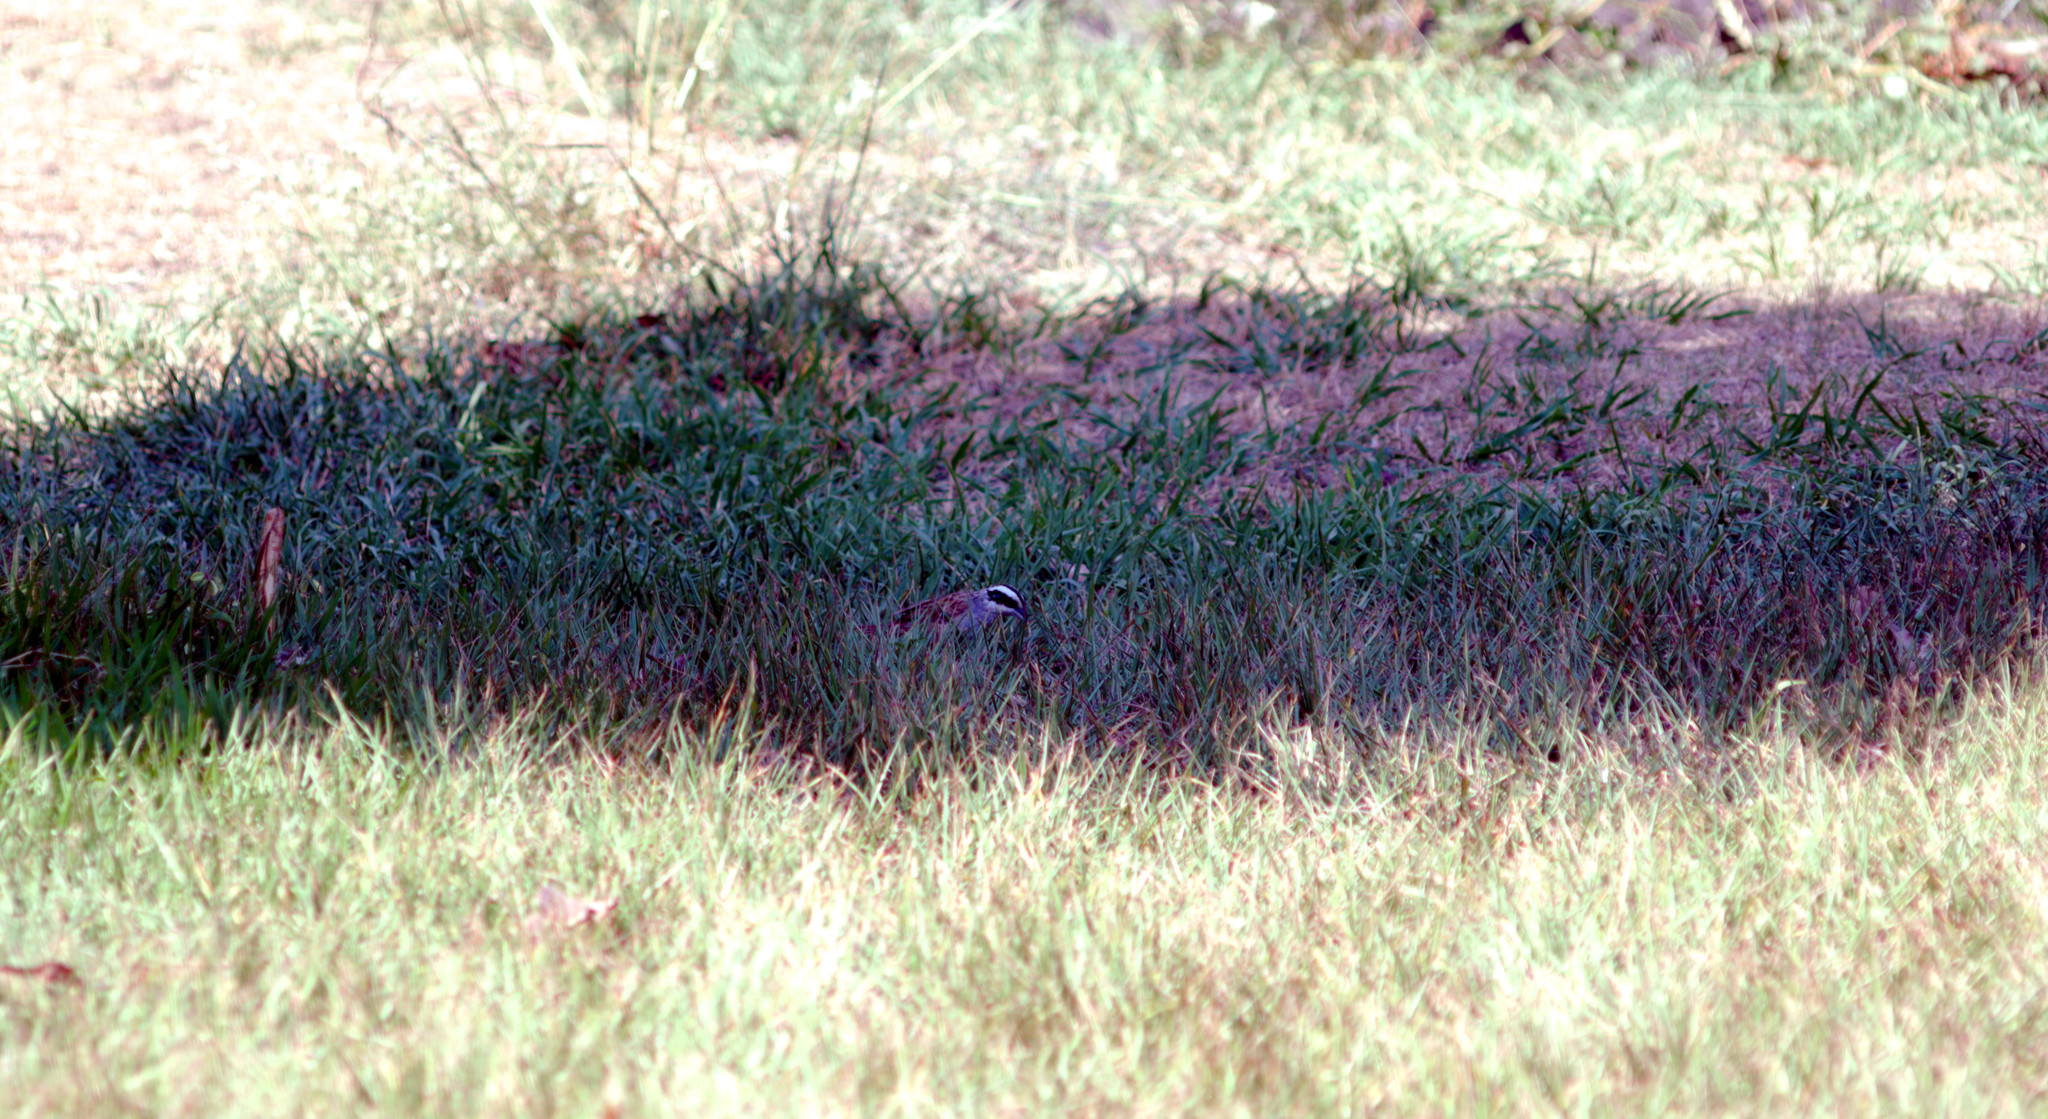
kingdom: Animalia
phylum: Chordata
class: Aves
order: Passeriformes
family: Passerellidae
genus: Peucaea
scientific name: Peucaea ruficauda
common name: Stripe-headed sparrow
